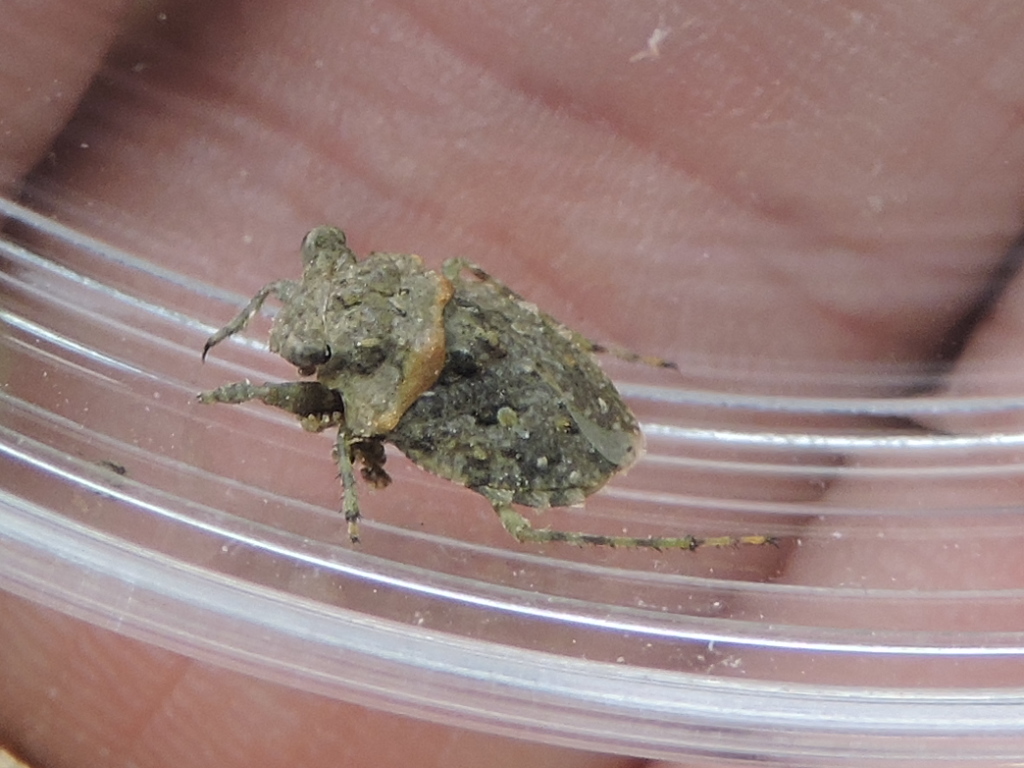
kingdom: Animalia
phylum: Arthropoda
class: Insecta
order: Hemiptera
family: Gelastocoridae
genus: Gelastocoris
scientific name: Gelastocoris oculatus
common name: Toad bug
